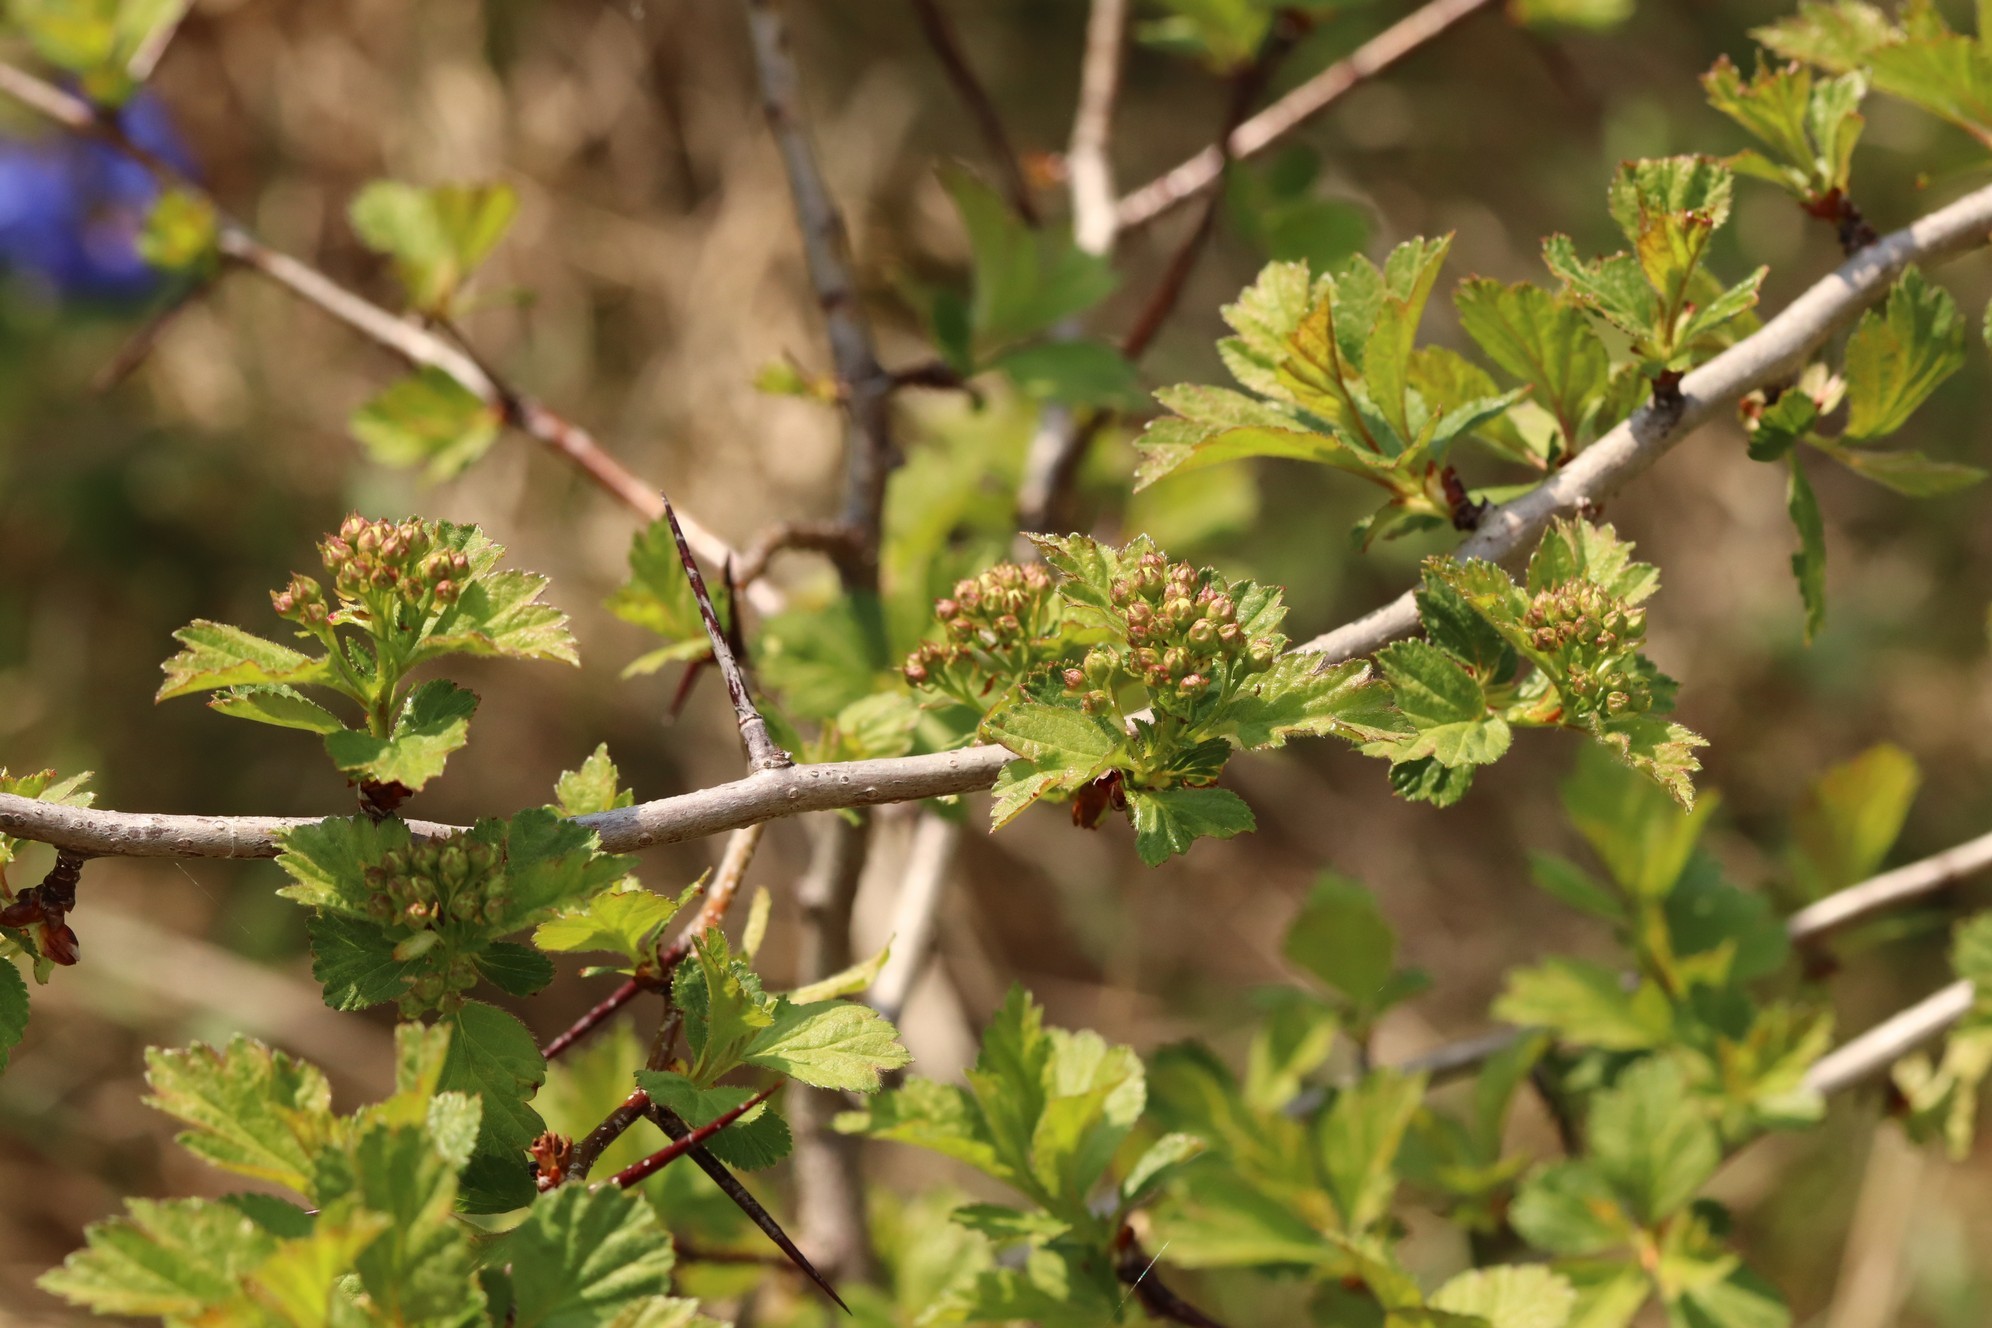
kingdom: Plantae
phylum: Tracheophyta
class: Magnoliopsida
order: Rosales
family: Rosaceae
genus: Crataegus
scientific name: Crataegus sanguinea
